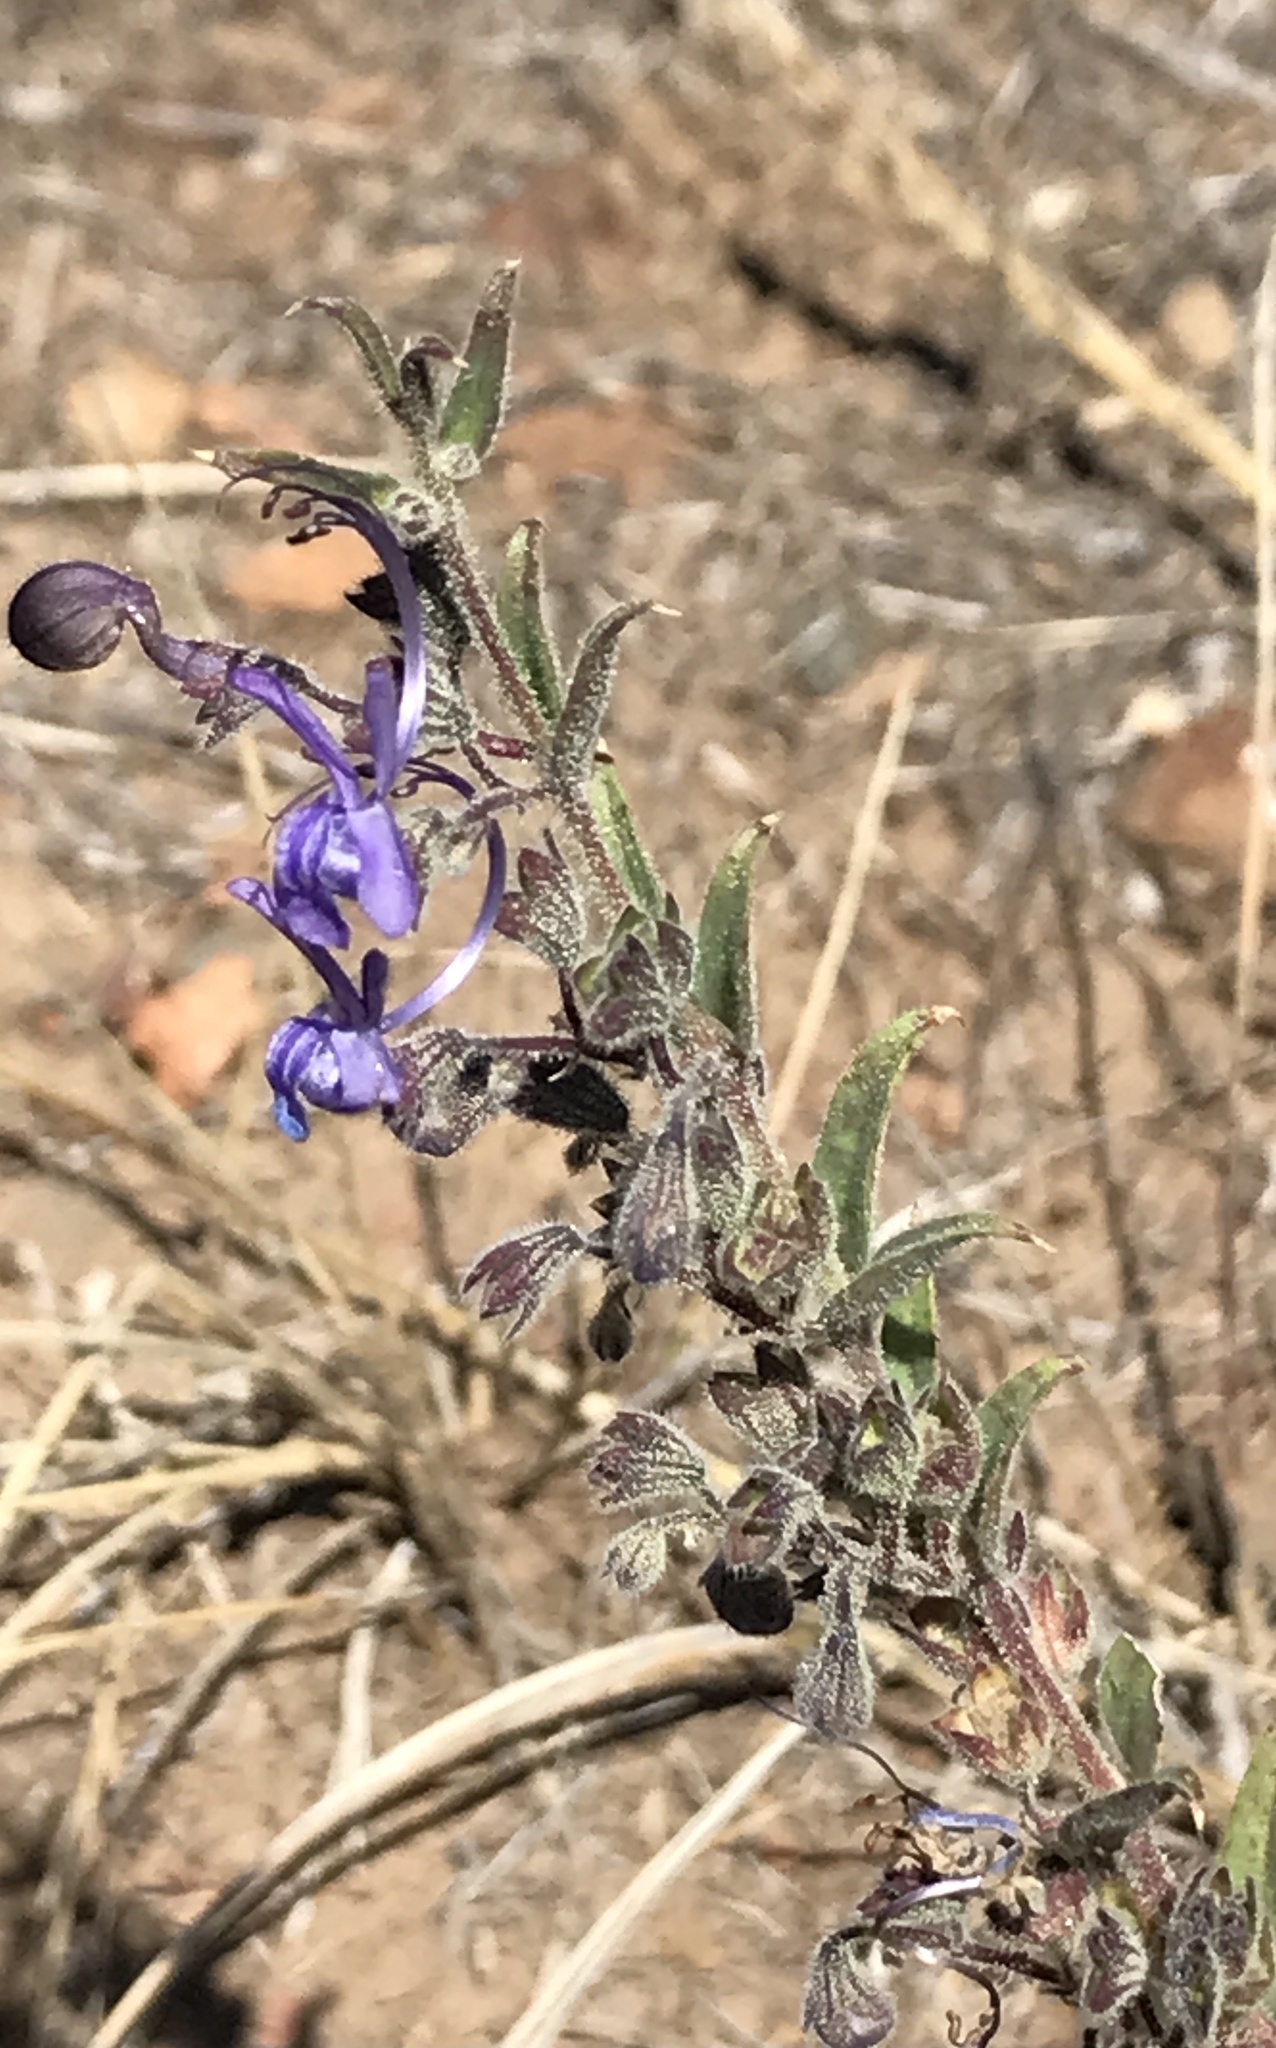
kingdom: Plantae
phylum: Tracheophyta
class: Magnoliopsida
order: Lamiales
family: Lamiaceae
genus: Trichostema
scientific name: Trichostema lanceolatum
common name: Vinegar-weed
